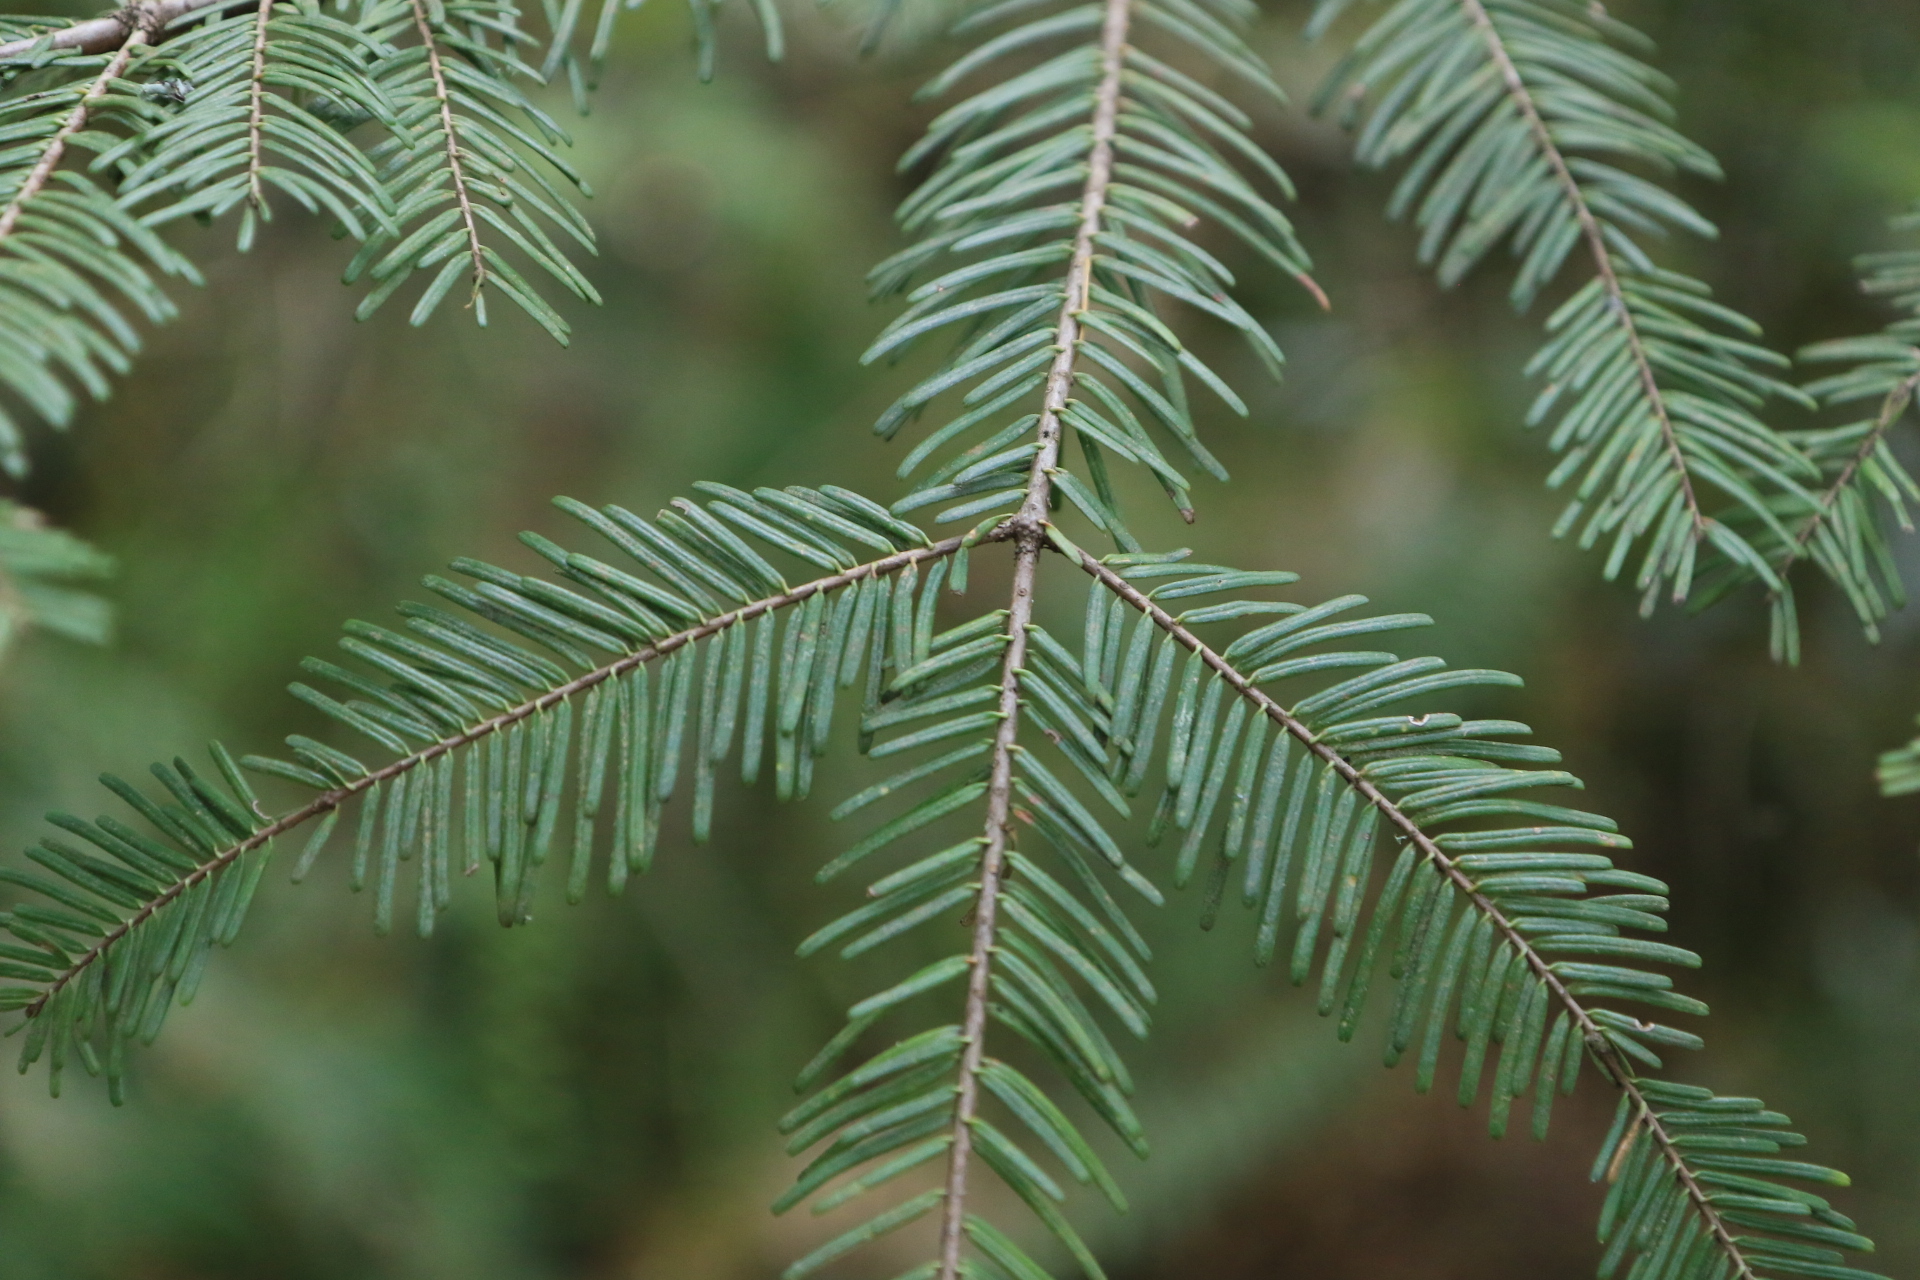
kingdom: Plantae
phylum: Tracheophyta
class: Pinopsida
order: Pinales
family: Pinaceae
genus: Abies
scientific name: Abies grandis
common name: Giant fir
